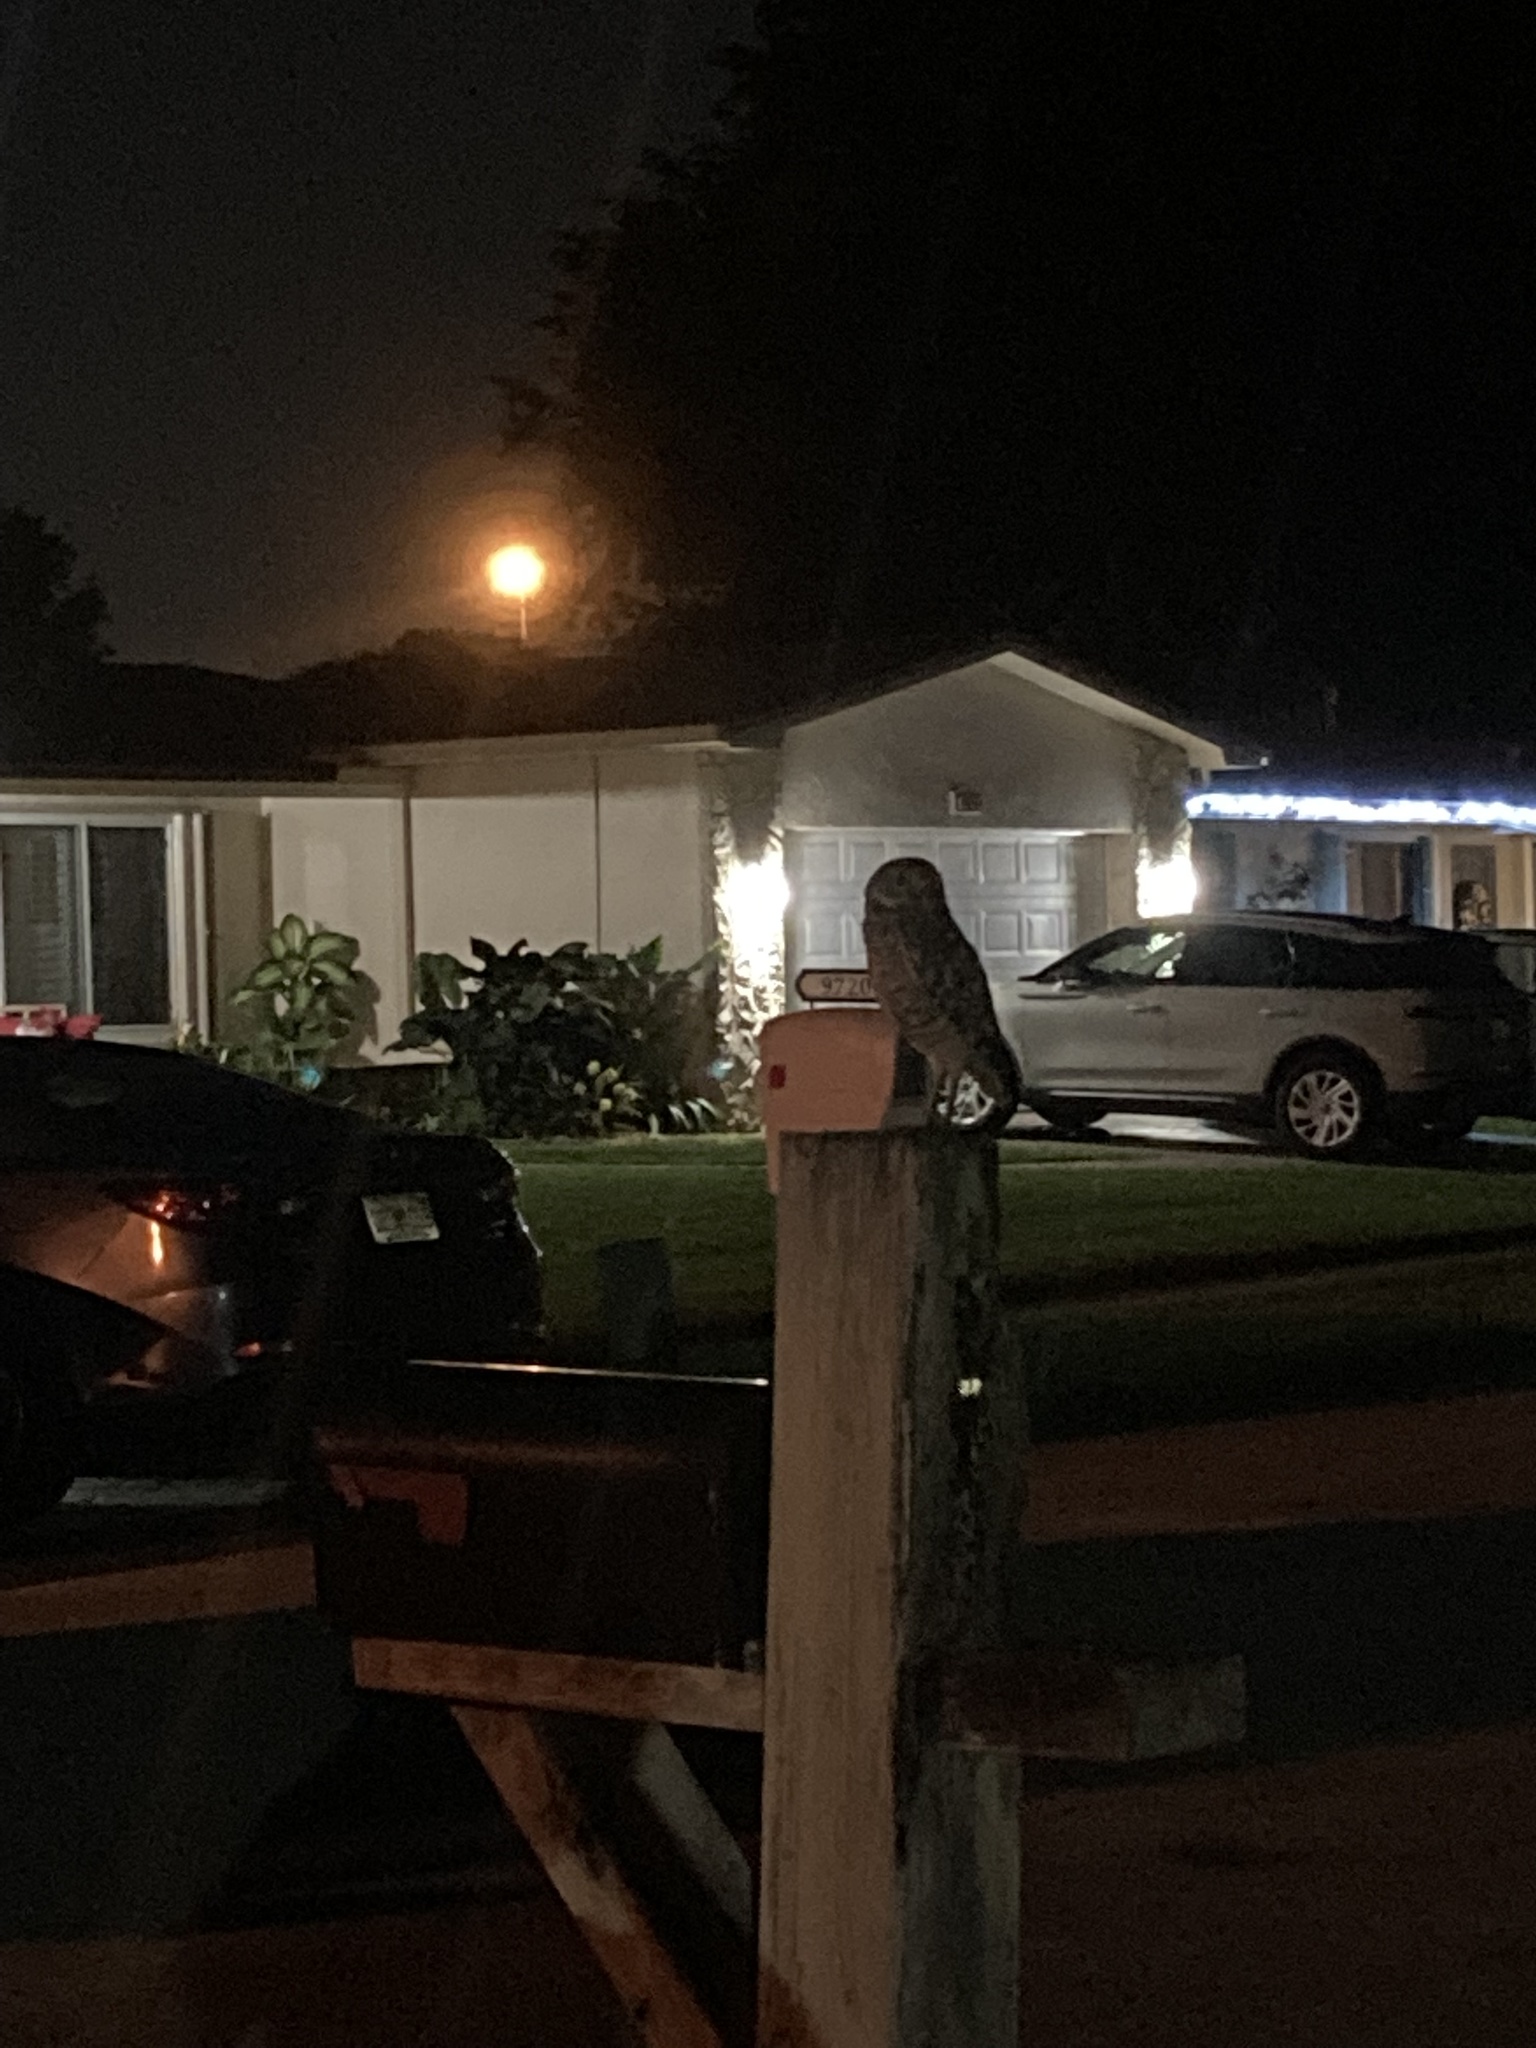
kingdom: Animalia
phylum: Chordata
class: Aves
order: Strigiformes
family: Strigidae
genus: Athene
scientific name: Athene cunicularia
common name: Burrowing owl
